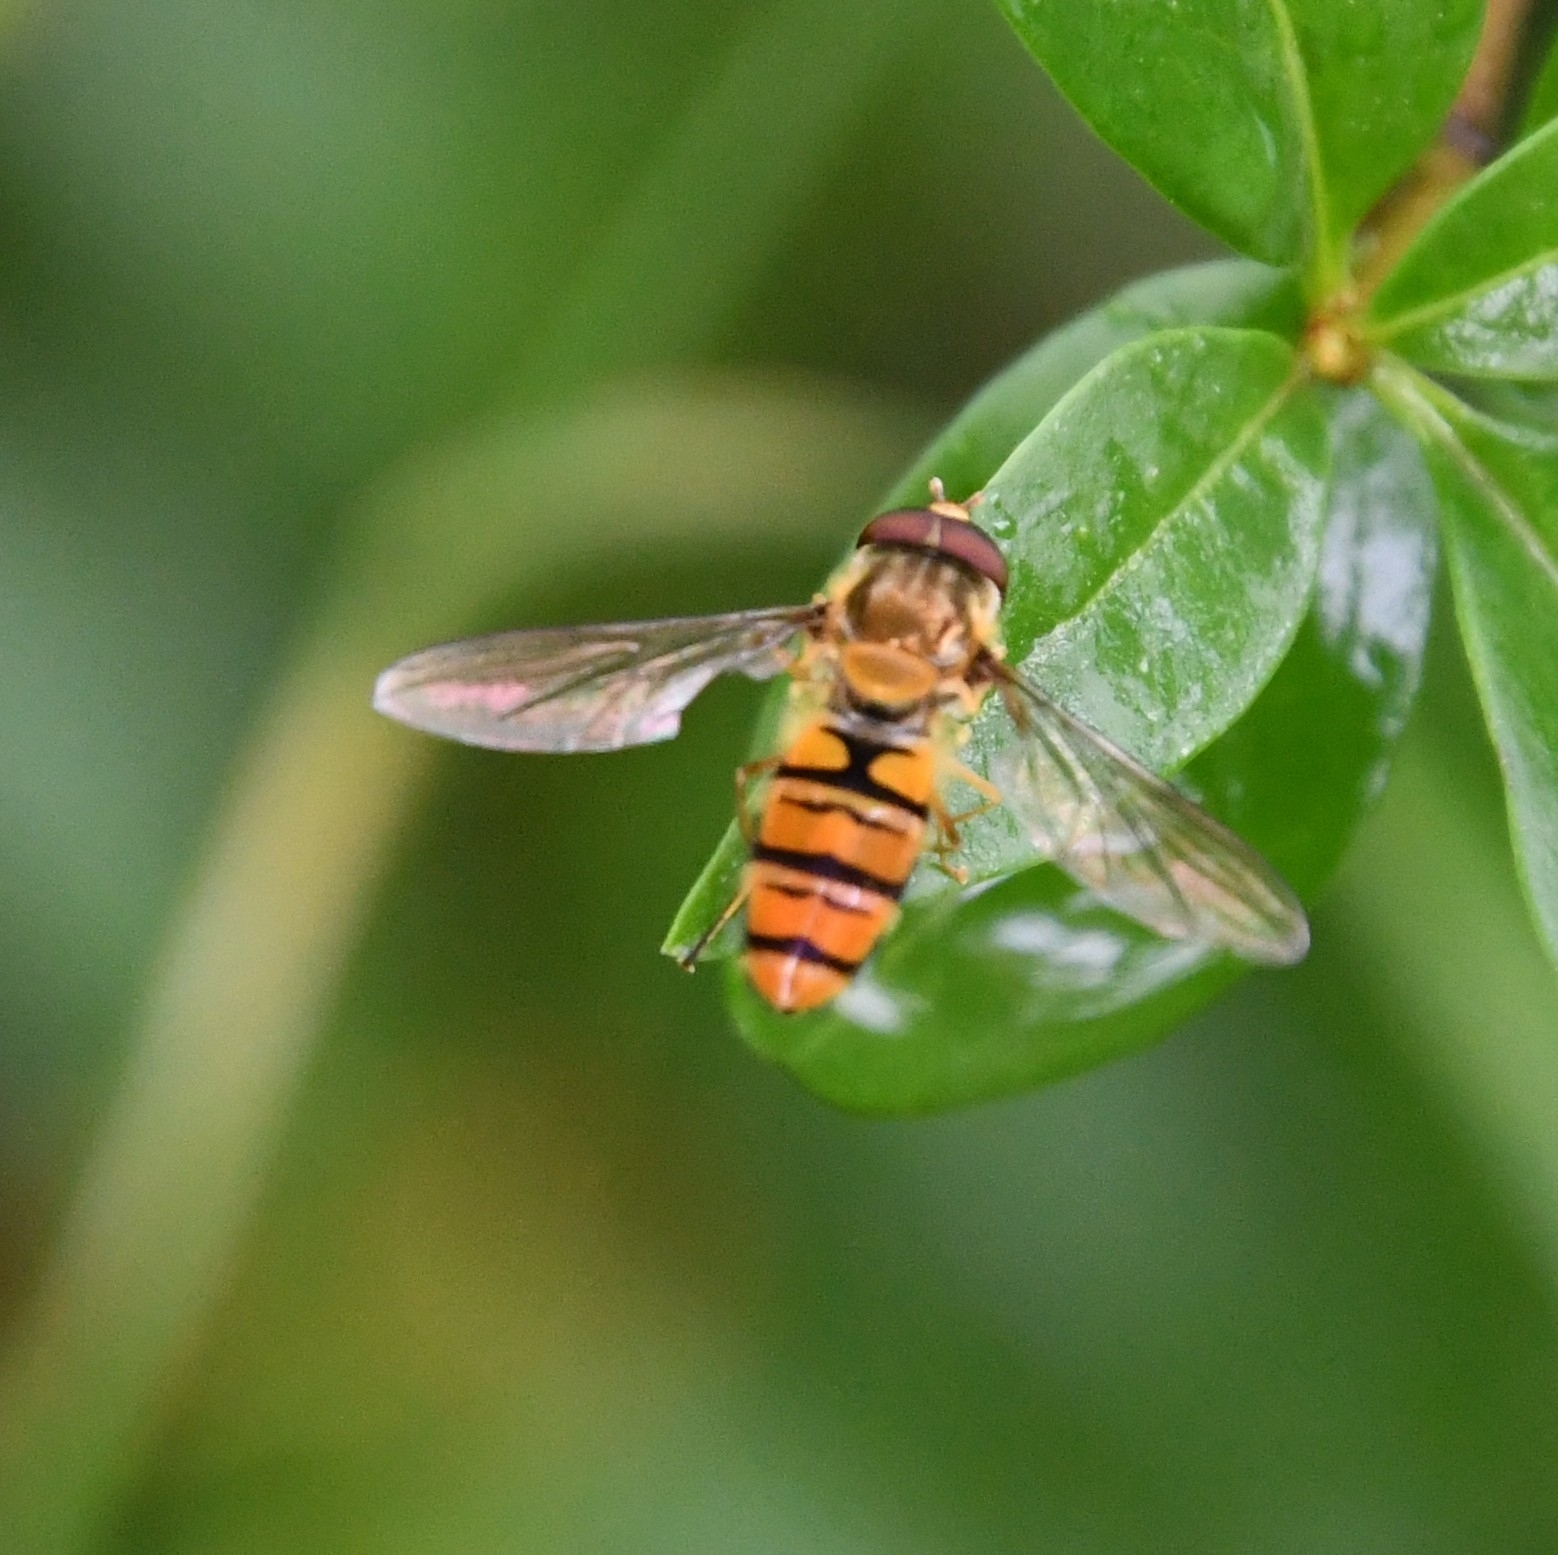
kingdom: Animalia
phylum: Arthropoda
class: Insecta
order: Diptera
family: Syrphidae
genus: Episyrphus
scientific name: Episyrphus balteatus
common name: Marmalade hoverfly
